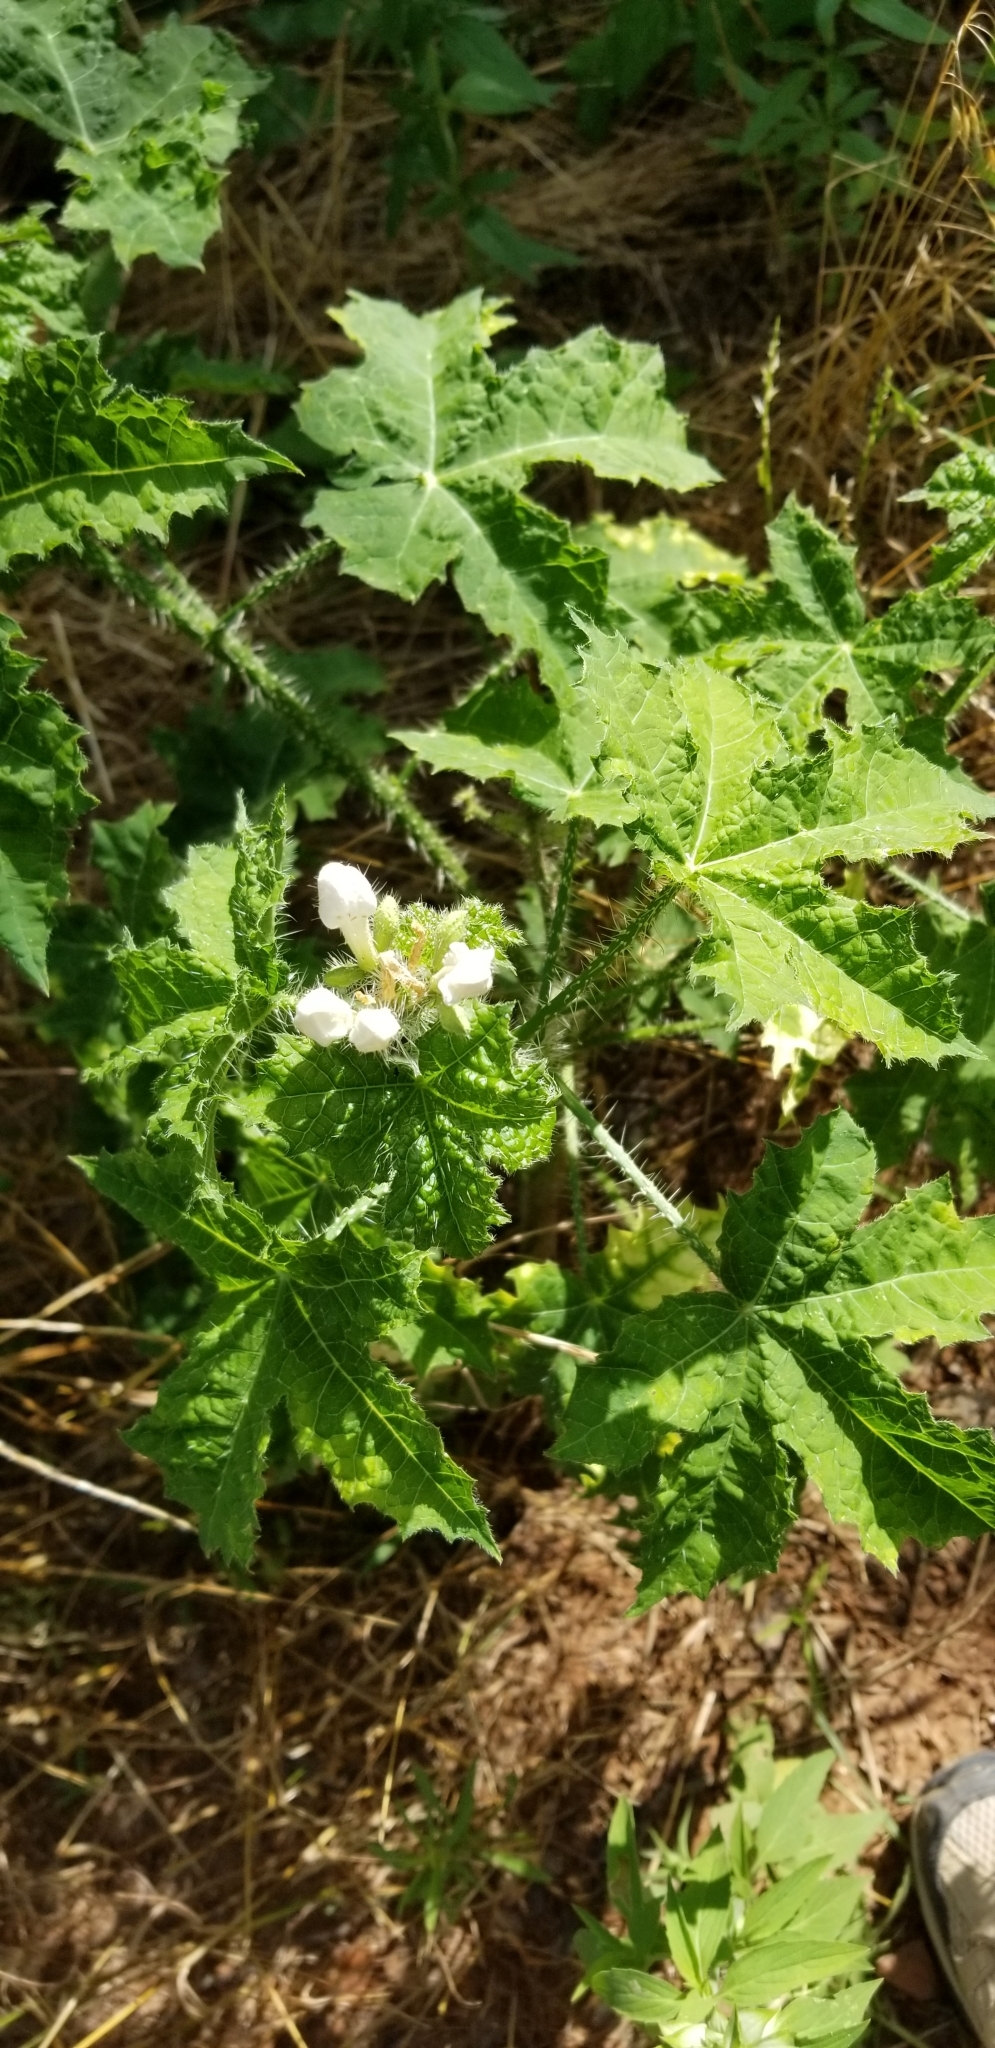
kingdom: Plantae
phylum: Tracheophyta
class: Magnoliopsida
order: Malpighiales
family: Euphorbiaceae
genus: Cnidoscolus
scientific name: Cnidoscolus texanus
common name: Texas bull-nettle
